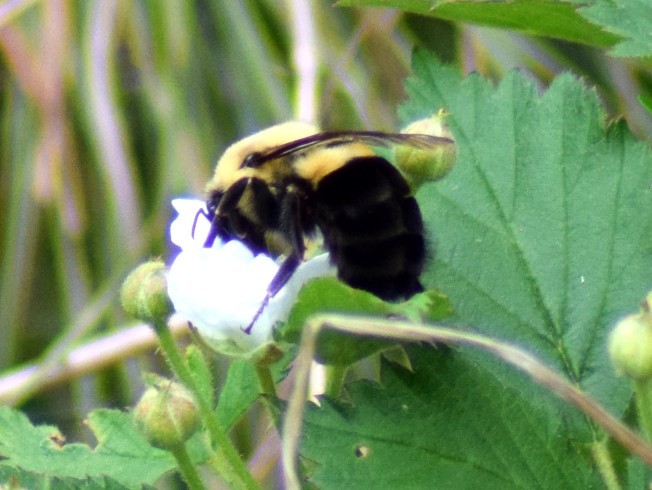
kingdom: Animalia
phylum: Arthropoda
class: Insecta
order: Hymenoptera
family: Apidae
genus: Bombus
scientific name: Bombus impatiens
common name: Common eastern bumble bee
